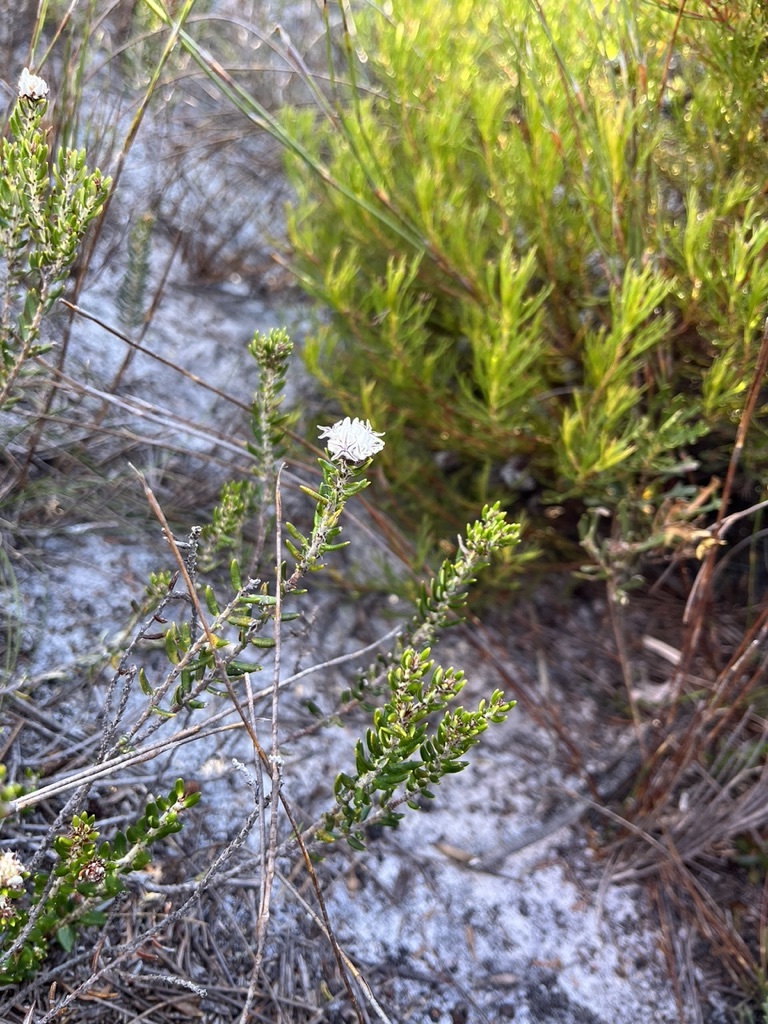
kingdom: Plantae
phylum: Tracheophyta
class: Magnoliopsida
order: Rosales
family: Rhamnaceae
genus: Trichocephalus
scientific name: Trichocephalus stipularis
